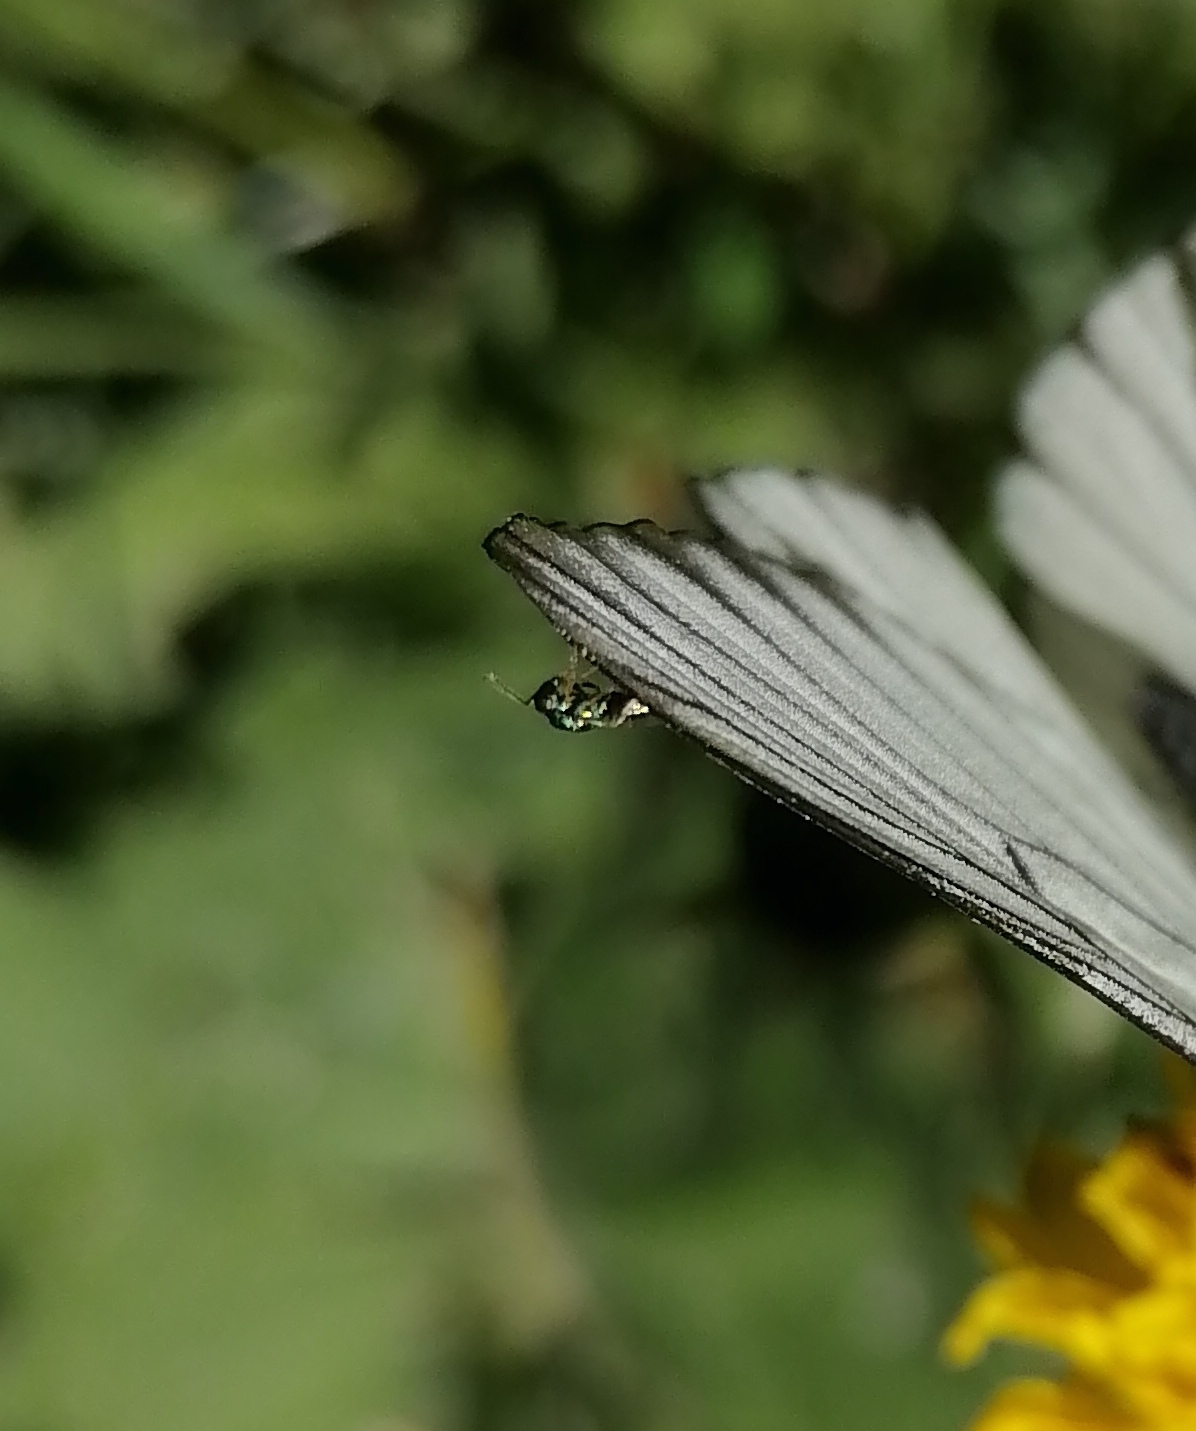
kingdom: Animalia
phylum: Arthropoda
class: Insecta
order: Lepidoptera
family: Pieridae
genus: Aporia
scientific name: Aporia crataegi
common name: Black-veined white
